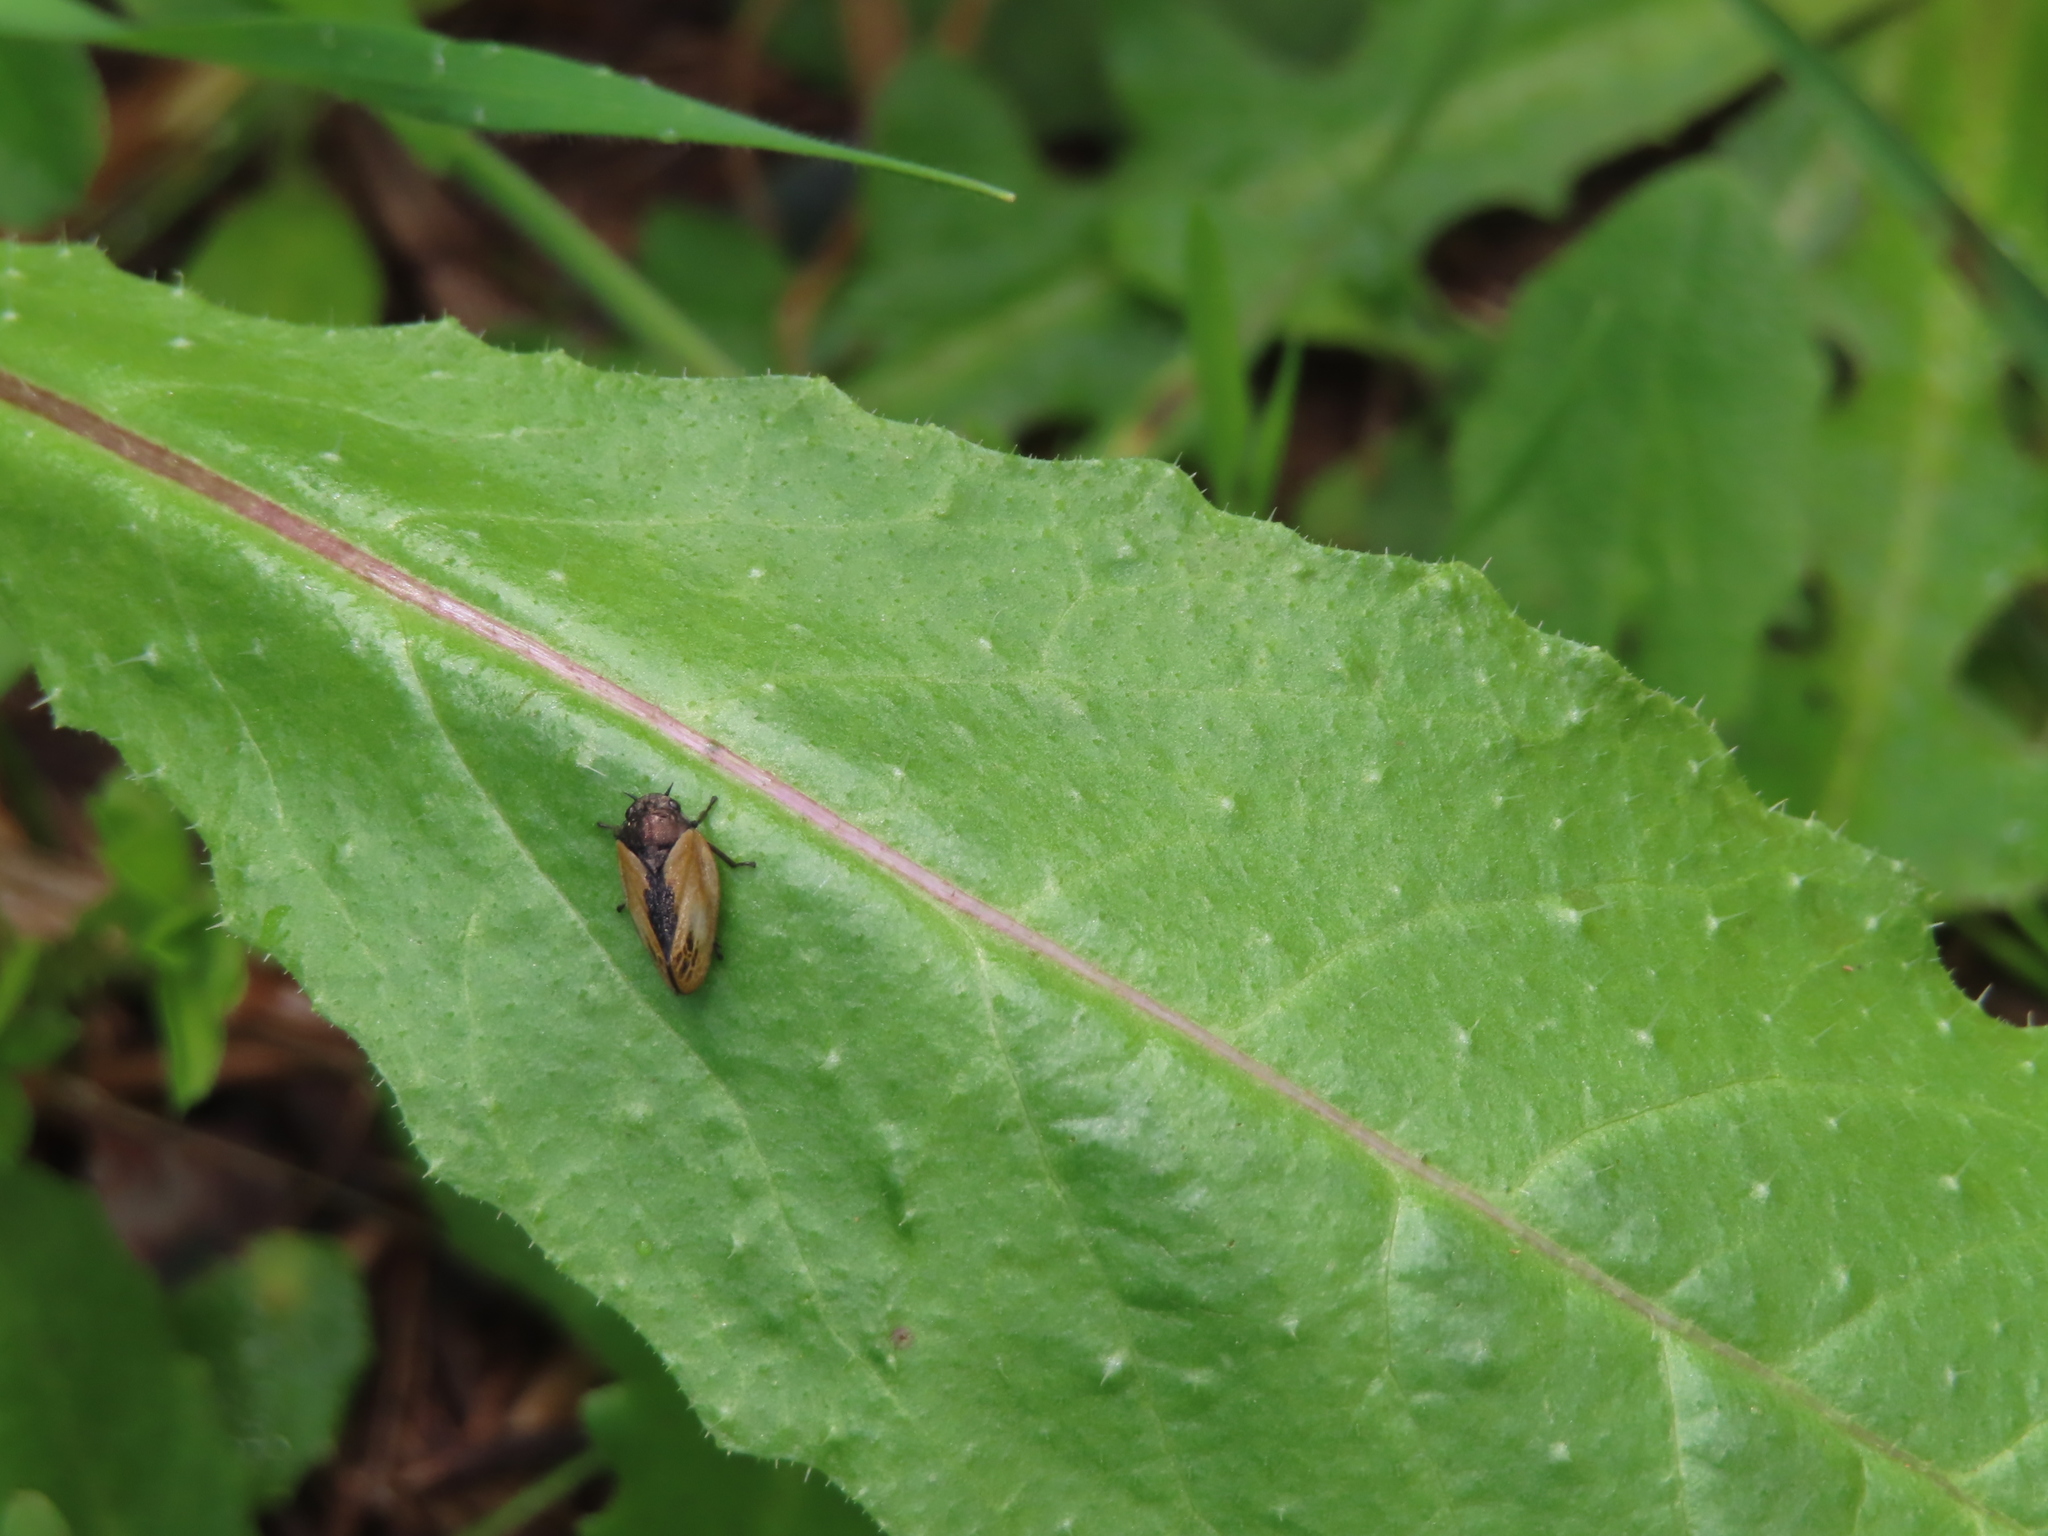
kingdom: Animalia
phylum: Arthropoda
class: Insecta
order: Hemiptera
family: Cercopidae
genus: Rhinaulax
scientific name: Rhinaulax analis
